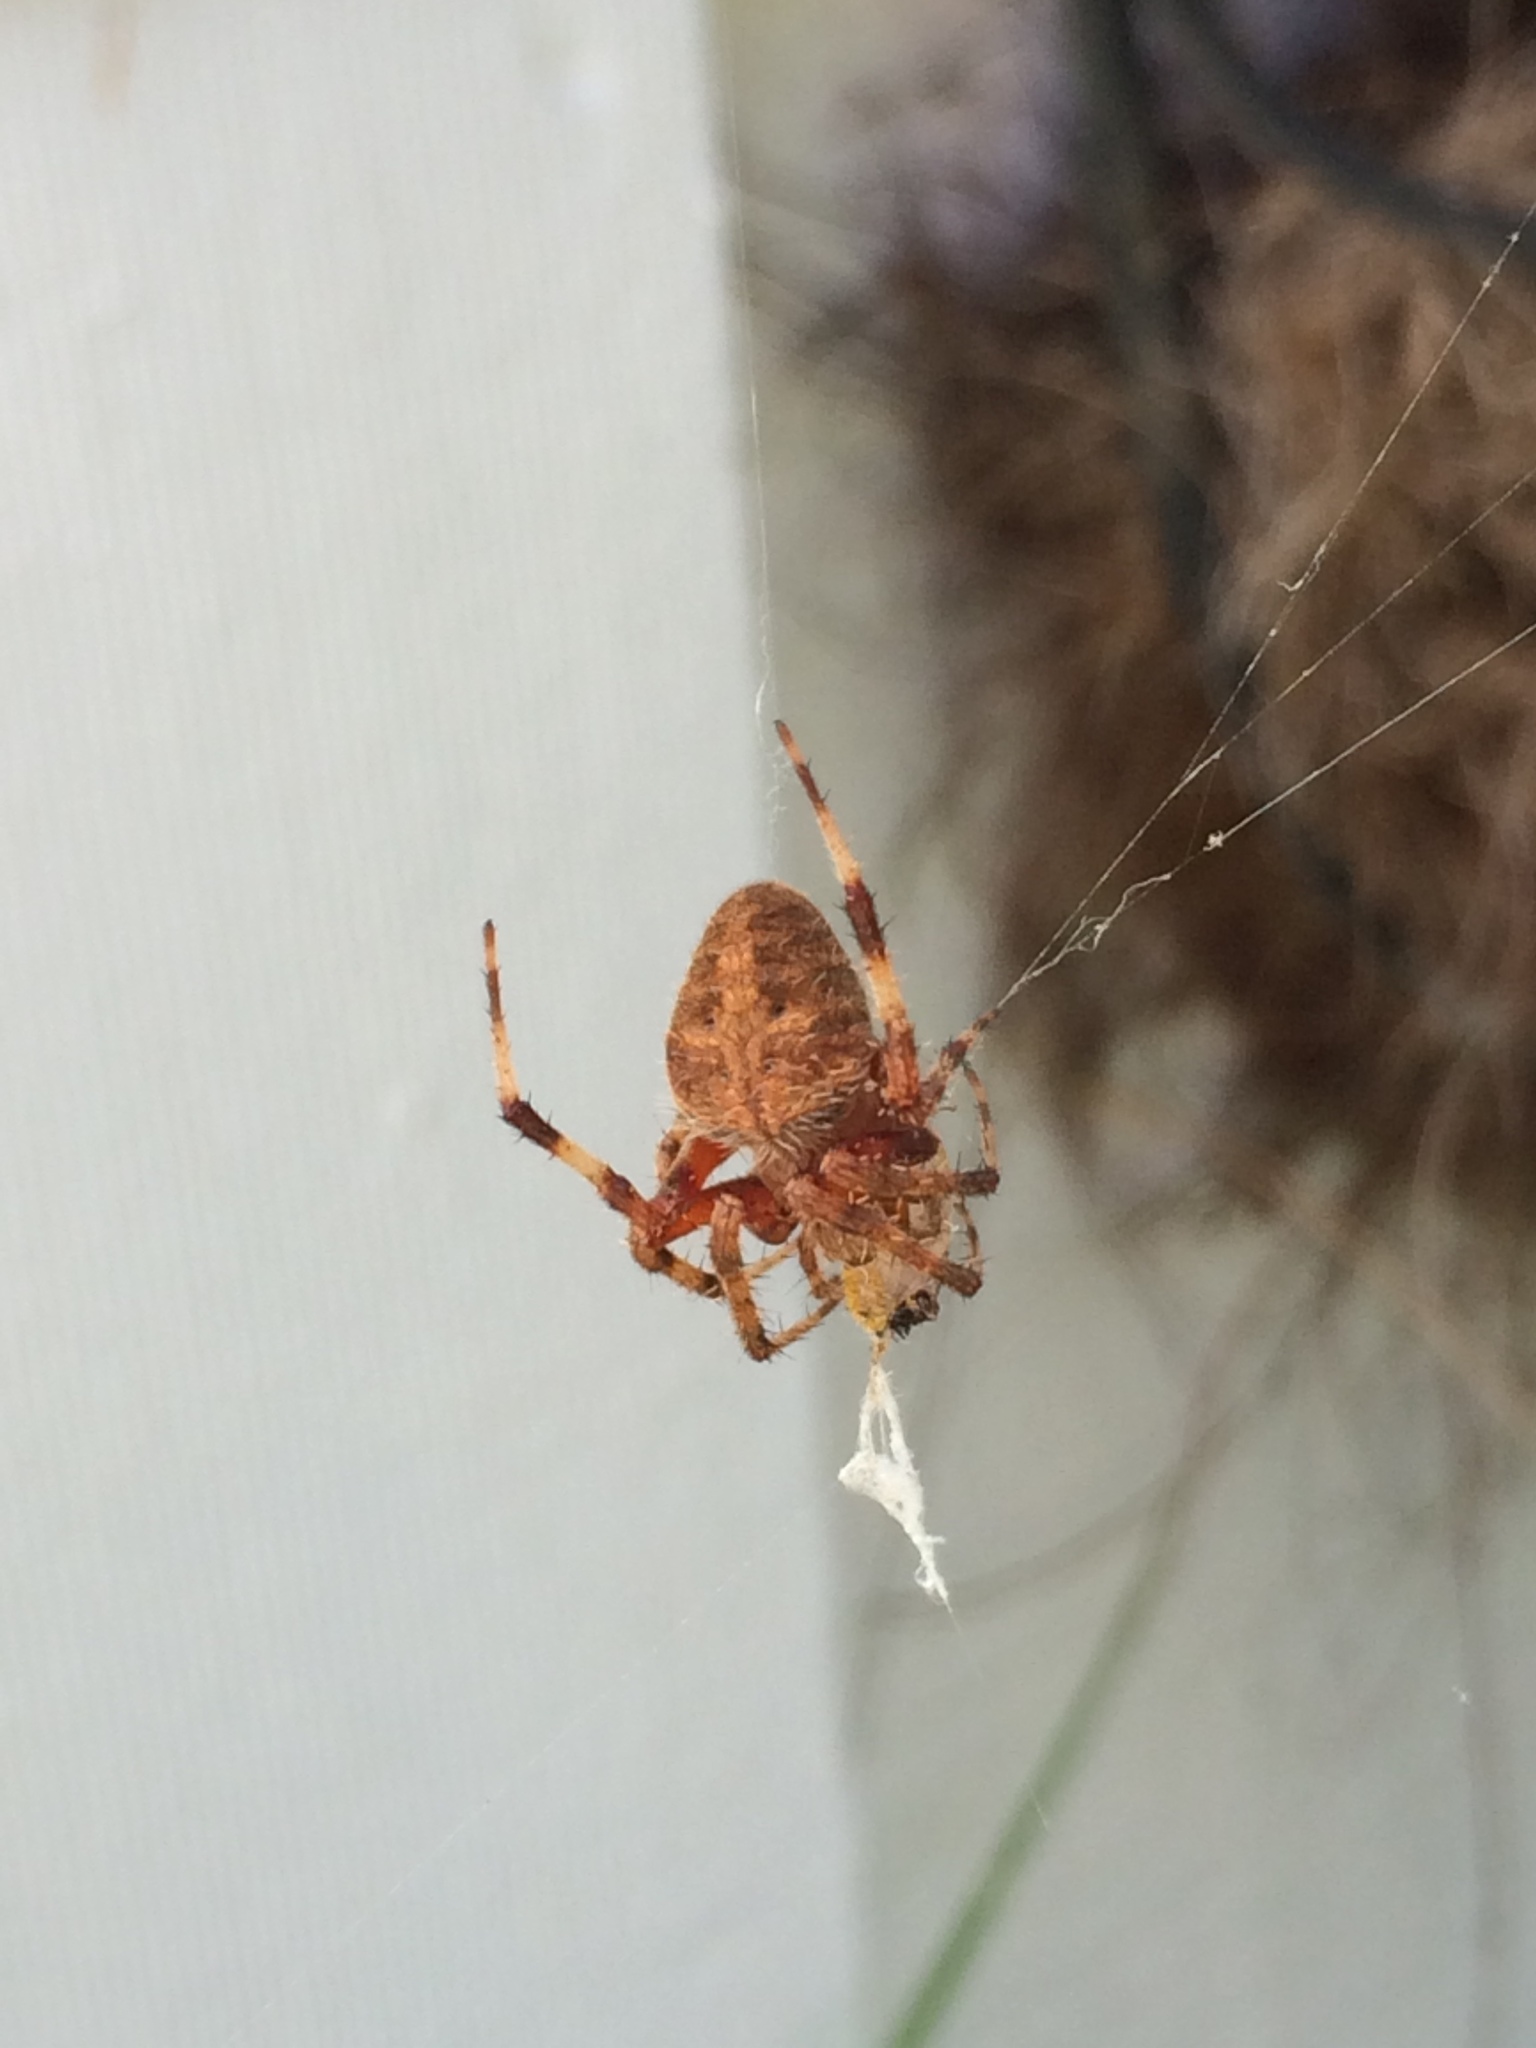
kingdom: Animalia
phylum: Arthropoda
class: Arachnida
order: Araneae
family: Araneidae
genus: Neoscona
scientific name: Neoscona crucifera
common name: Spotted orbweaver
